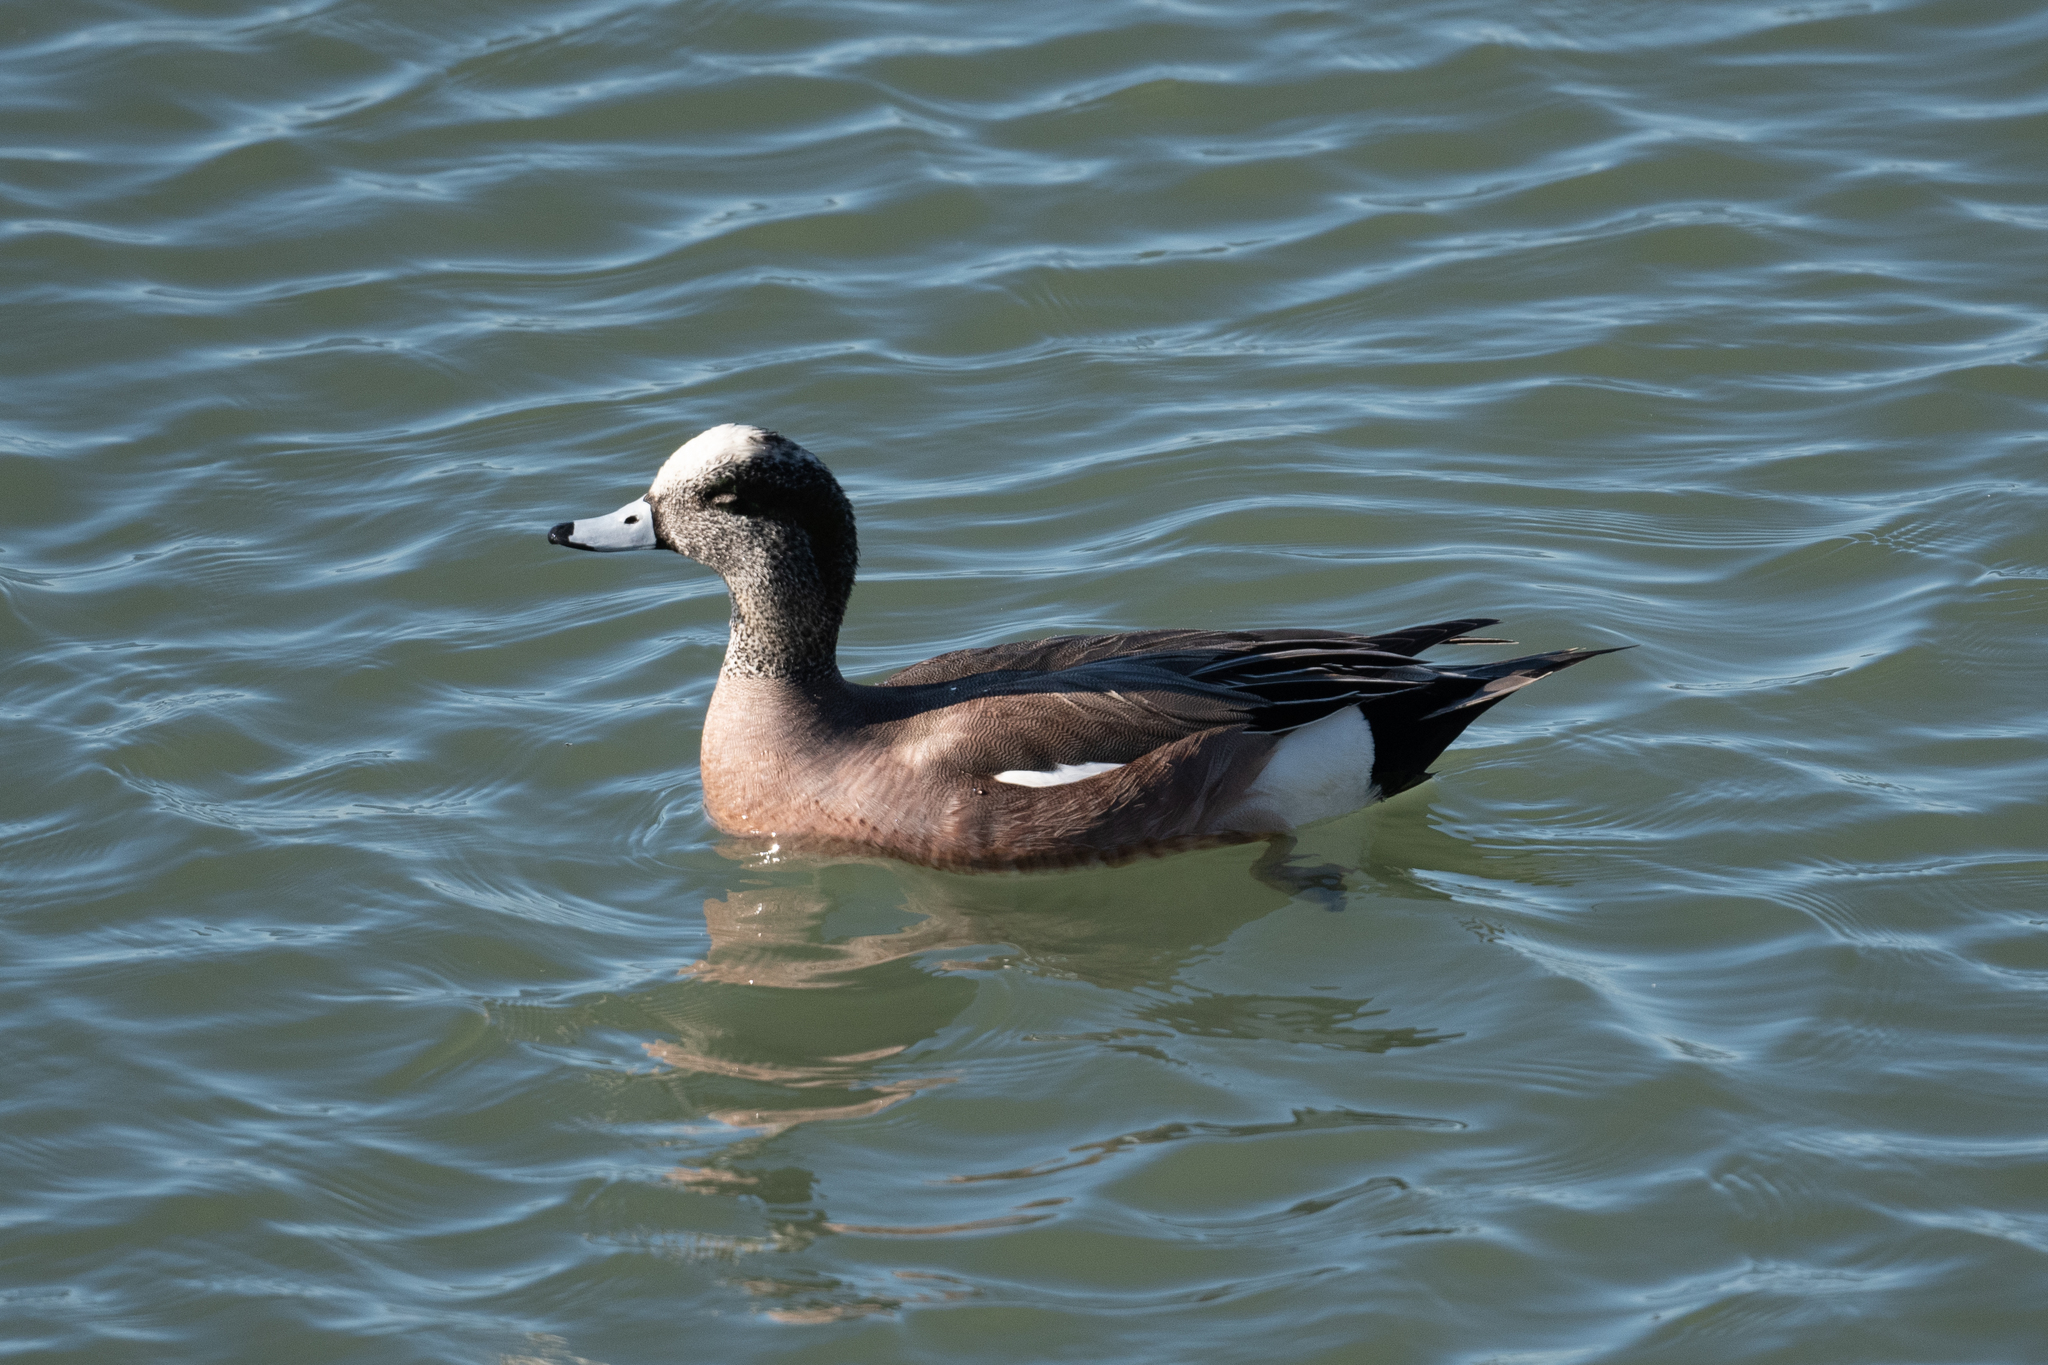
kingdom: Animalia
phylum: Chordata
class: Aves
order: Anseriformes
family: Anatidae
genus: Mareca
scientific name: Mareca americana
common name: American wigeon
